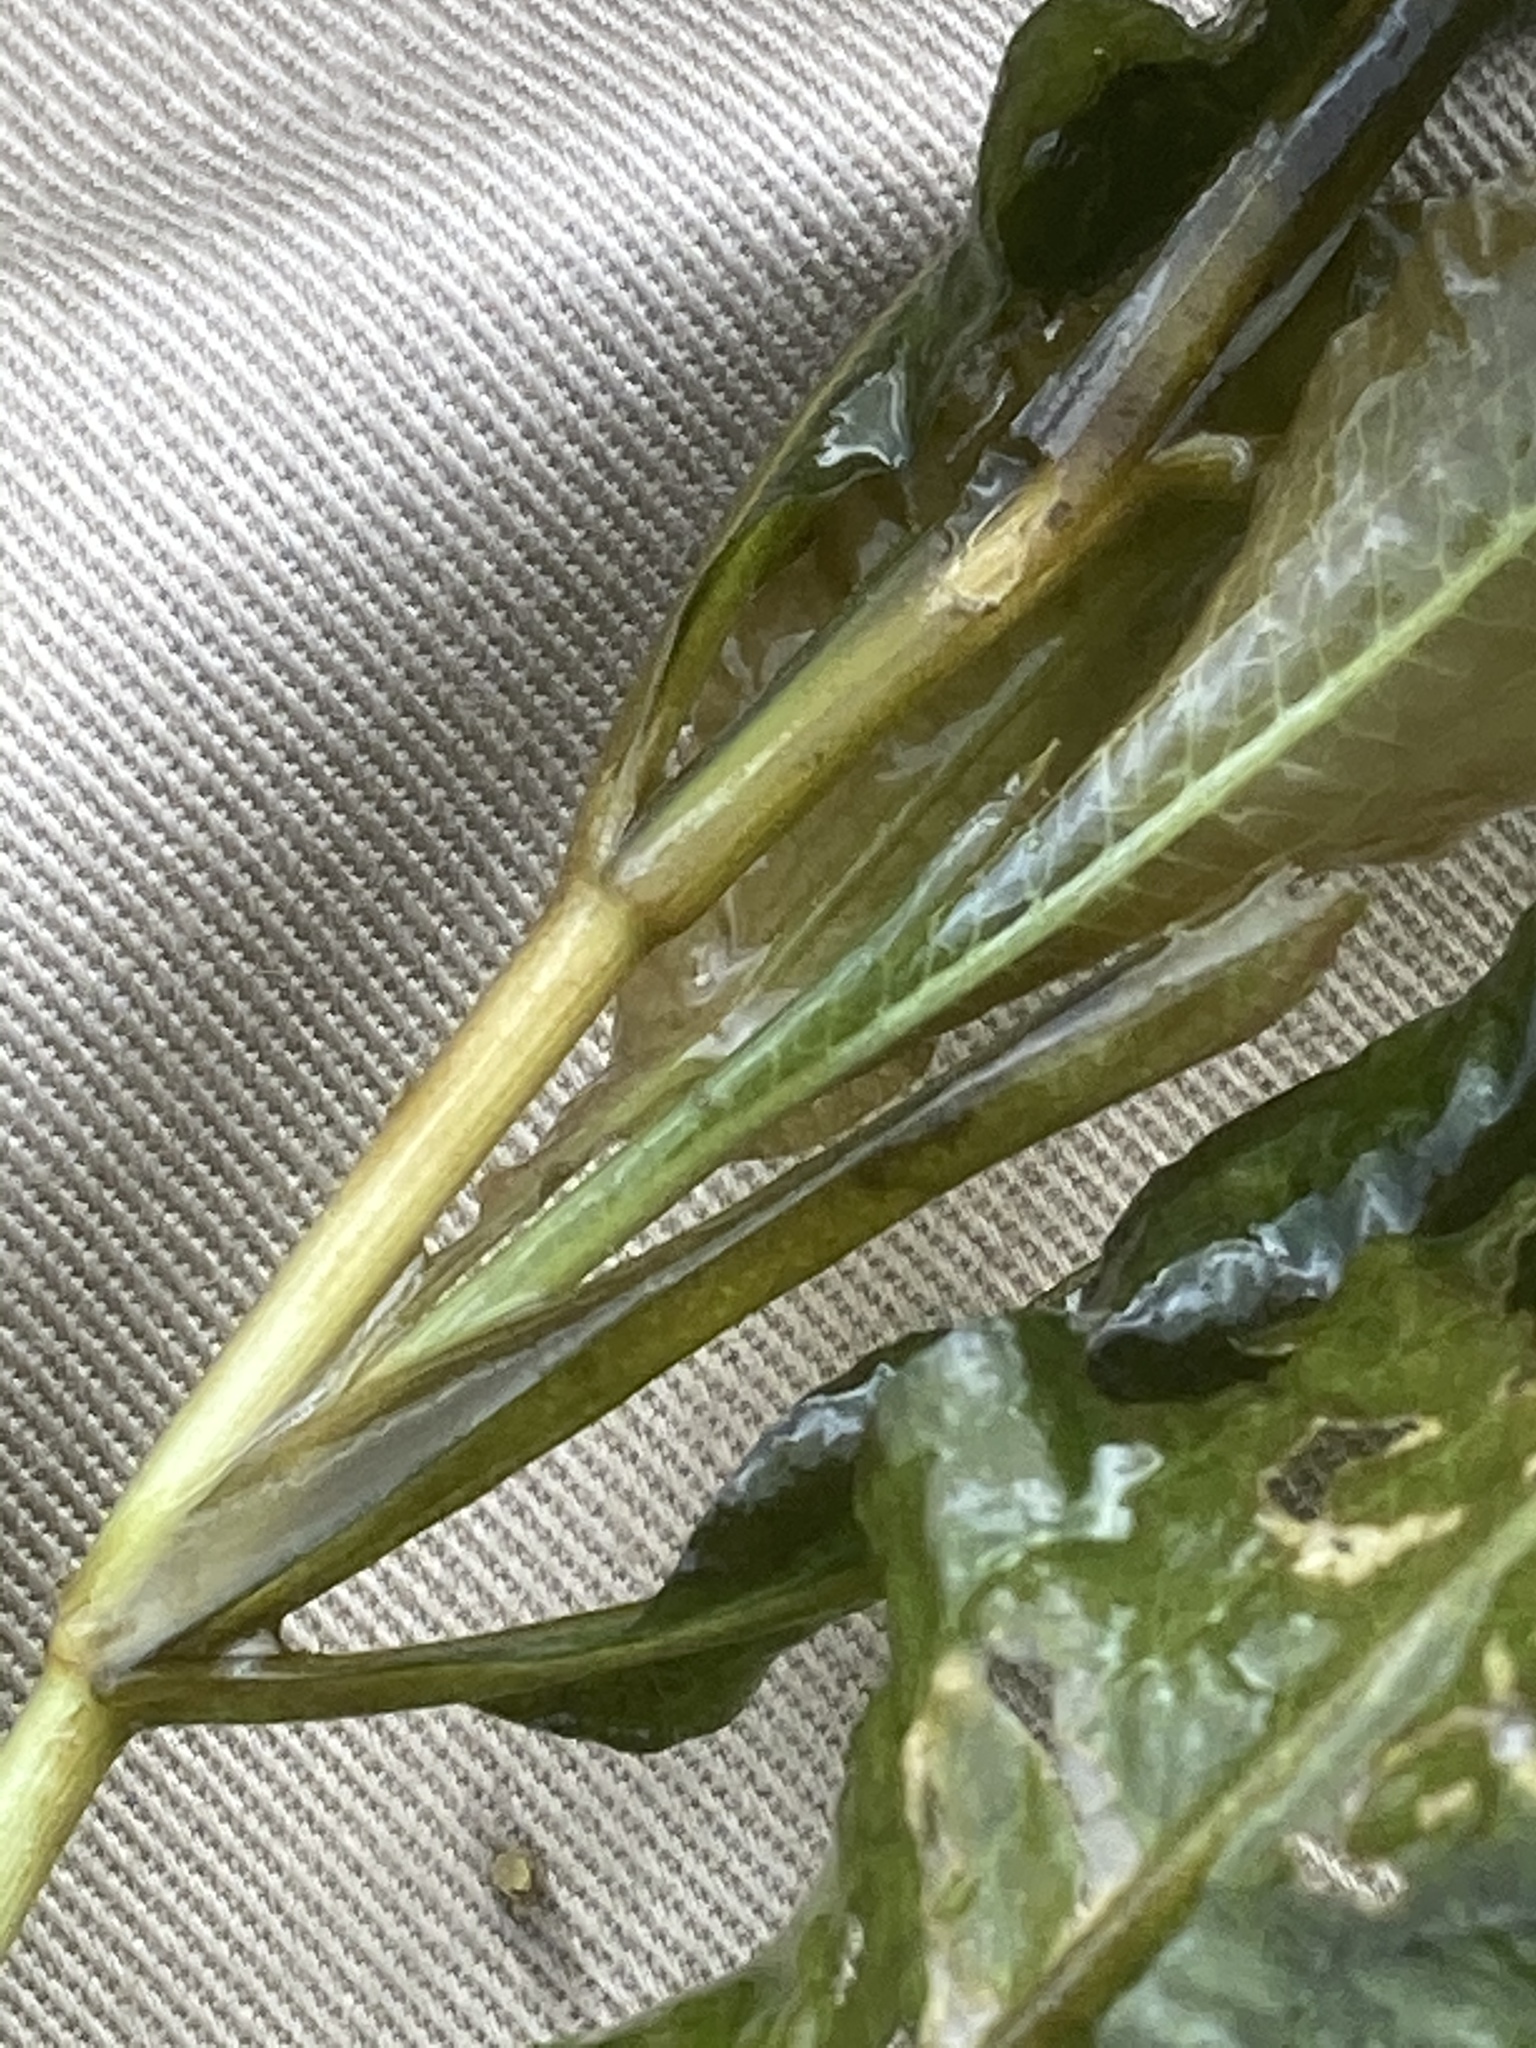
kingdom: Plantae
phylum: Tracheophyta
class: Liliopsida
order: Alismatales
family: Potamogetonaceae
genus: Potamogeton
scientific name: Potamogeton lucens
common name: Shining pondweed
